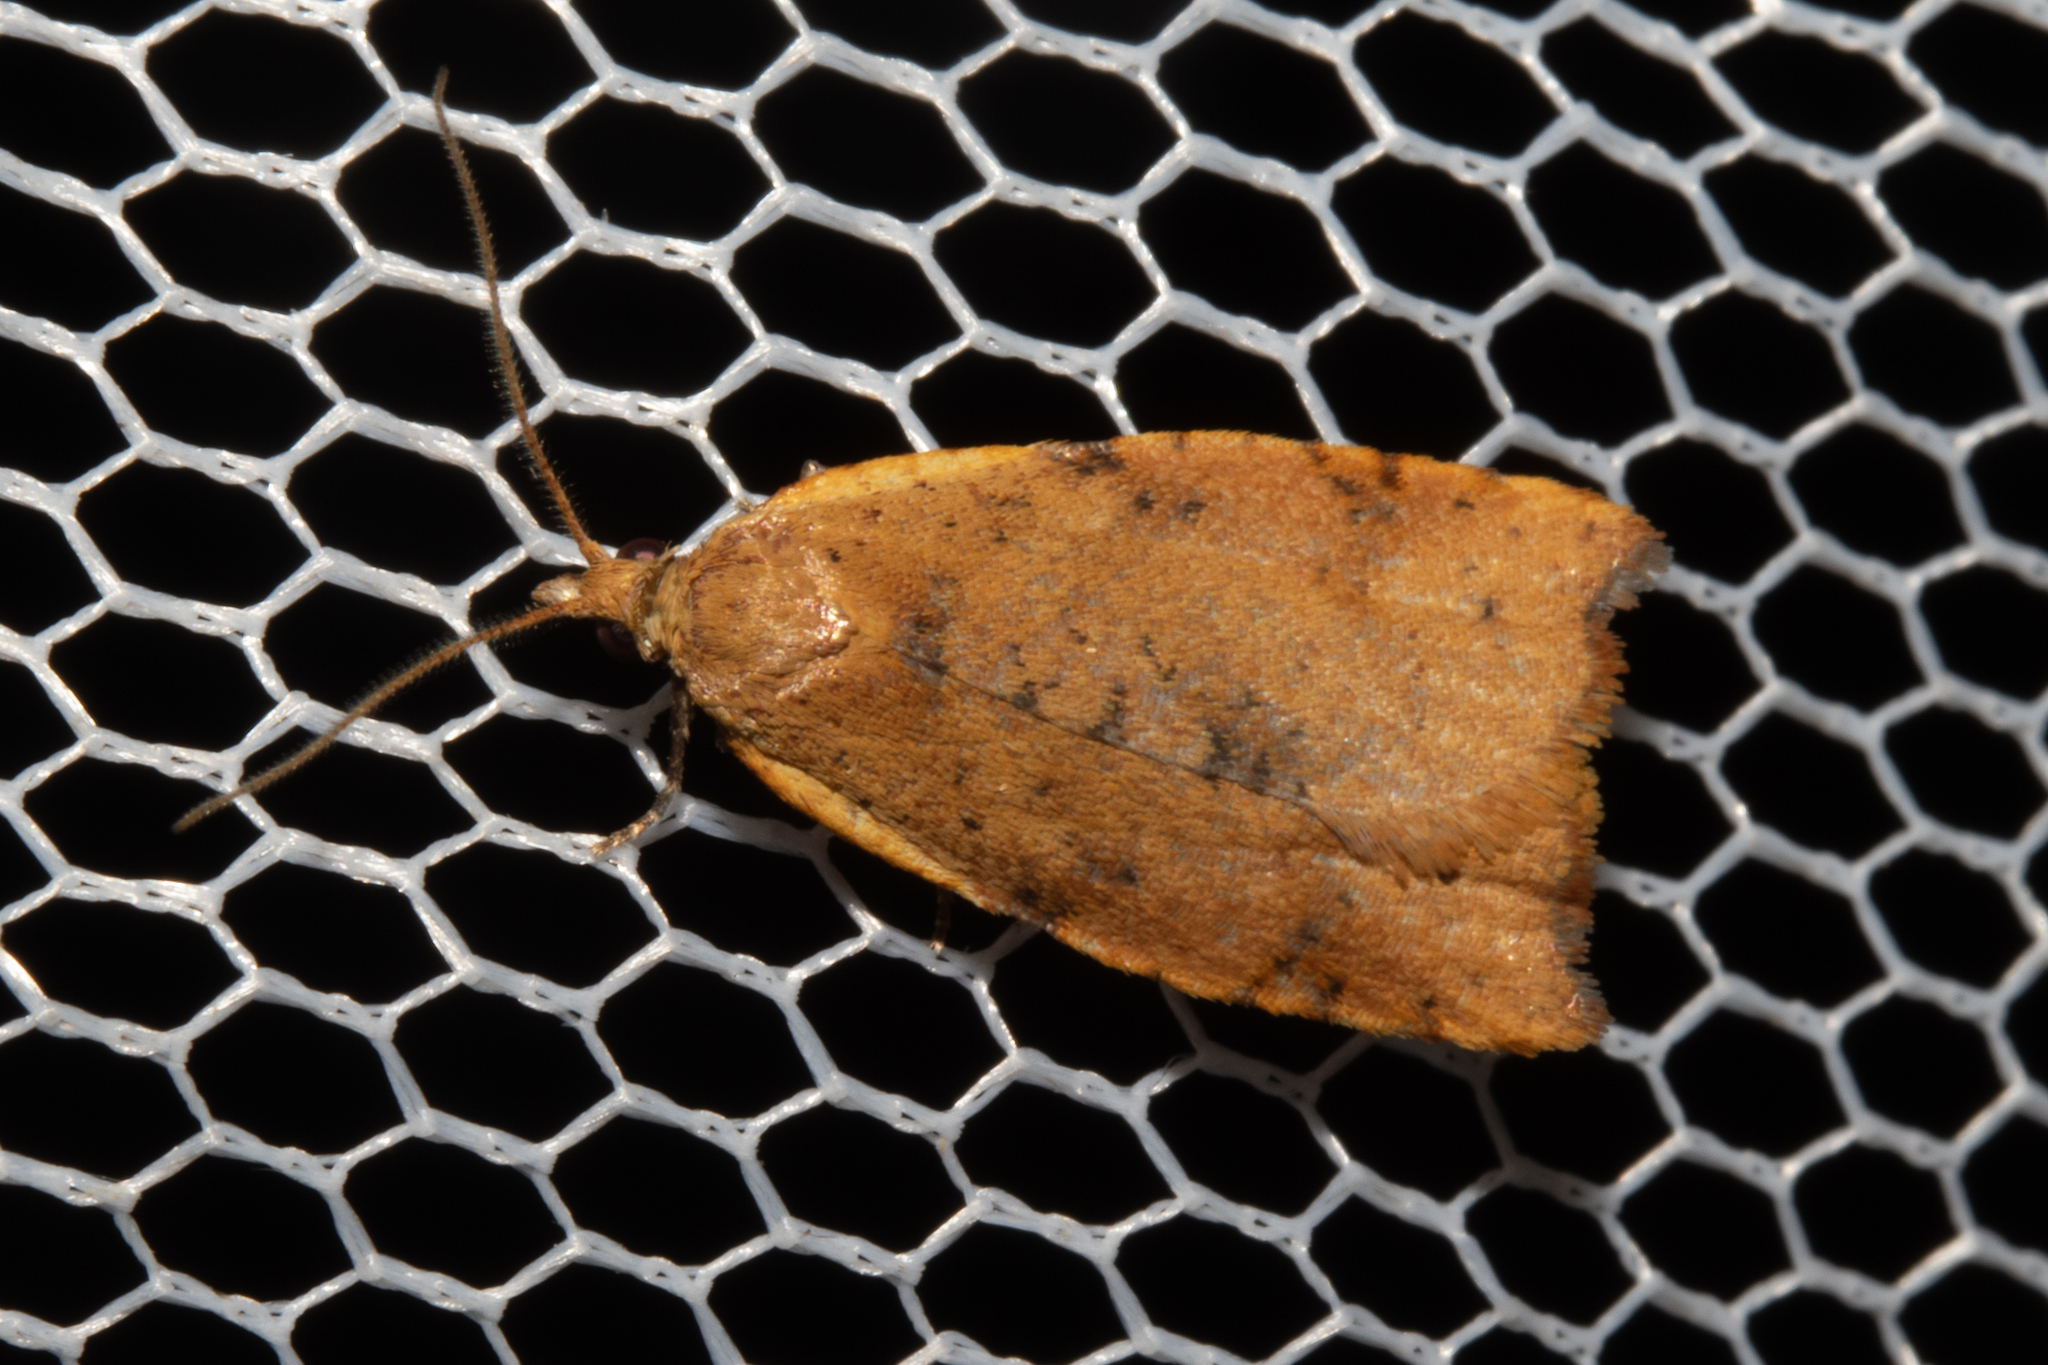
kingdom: Animalia
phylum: Arthropoda
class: Insecta
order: Lepidoptera
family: Tortricidae
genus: Apoctena
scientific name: Apoctena flavescens
